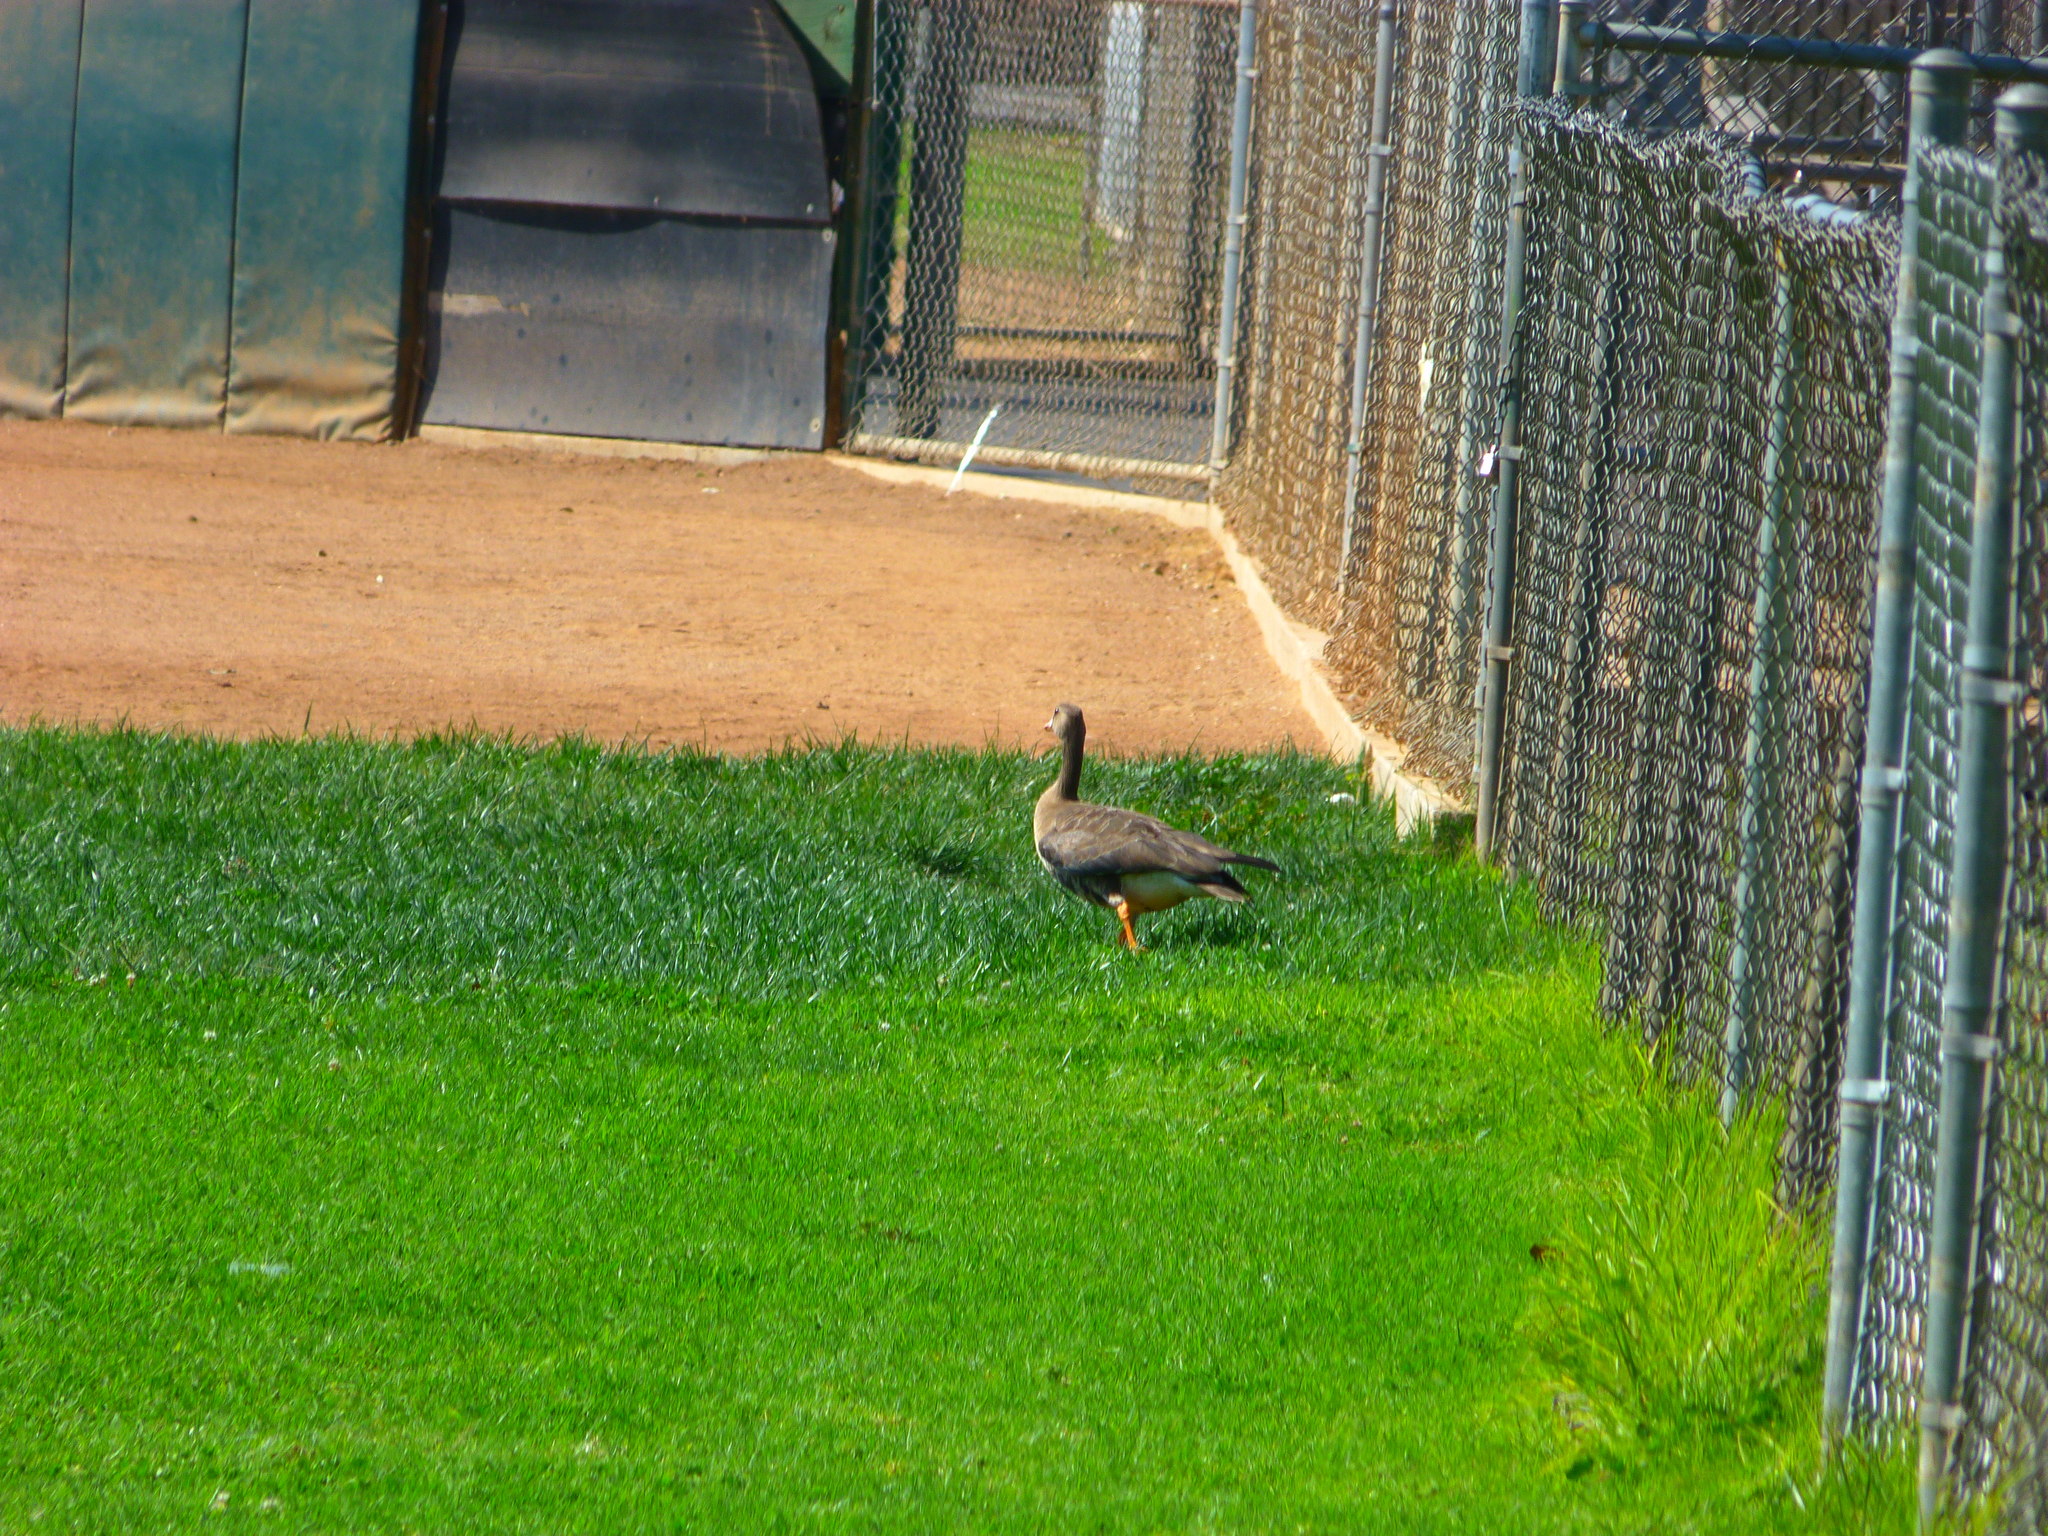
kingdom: Animalia
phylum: Chordata
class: Aves
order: Anseriformes
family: Anatidae
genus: Anser
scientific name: Anser albifrons
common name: Greater white-fronted goose
